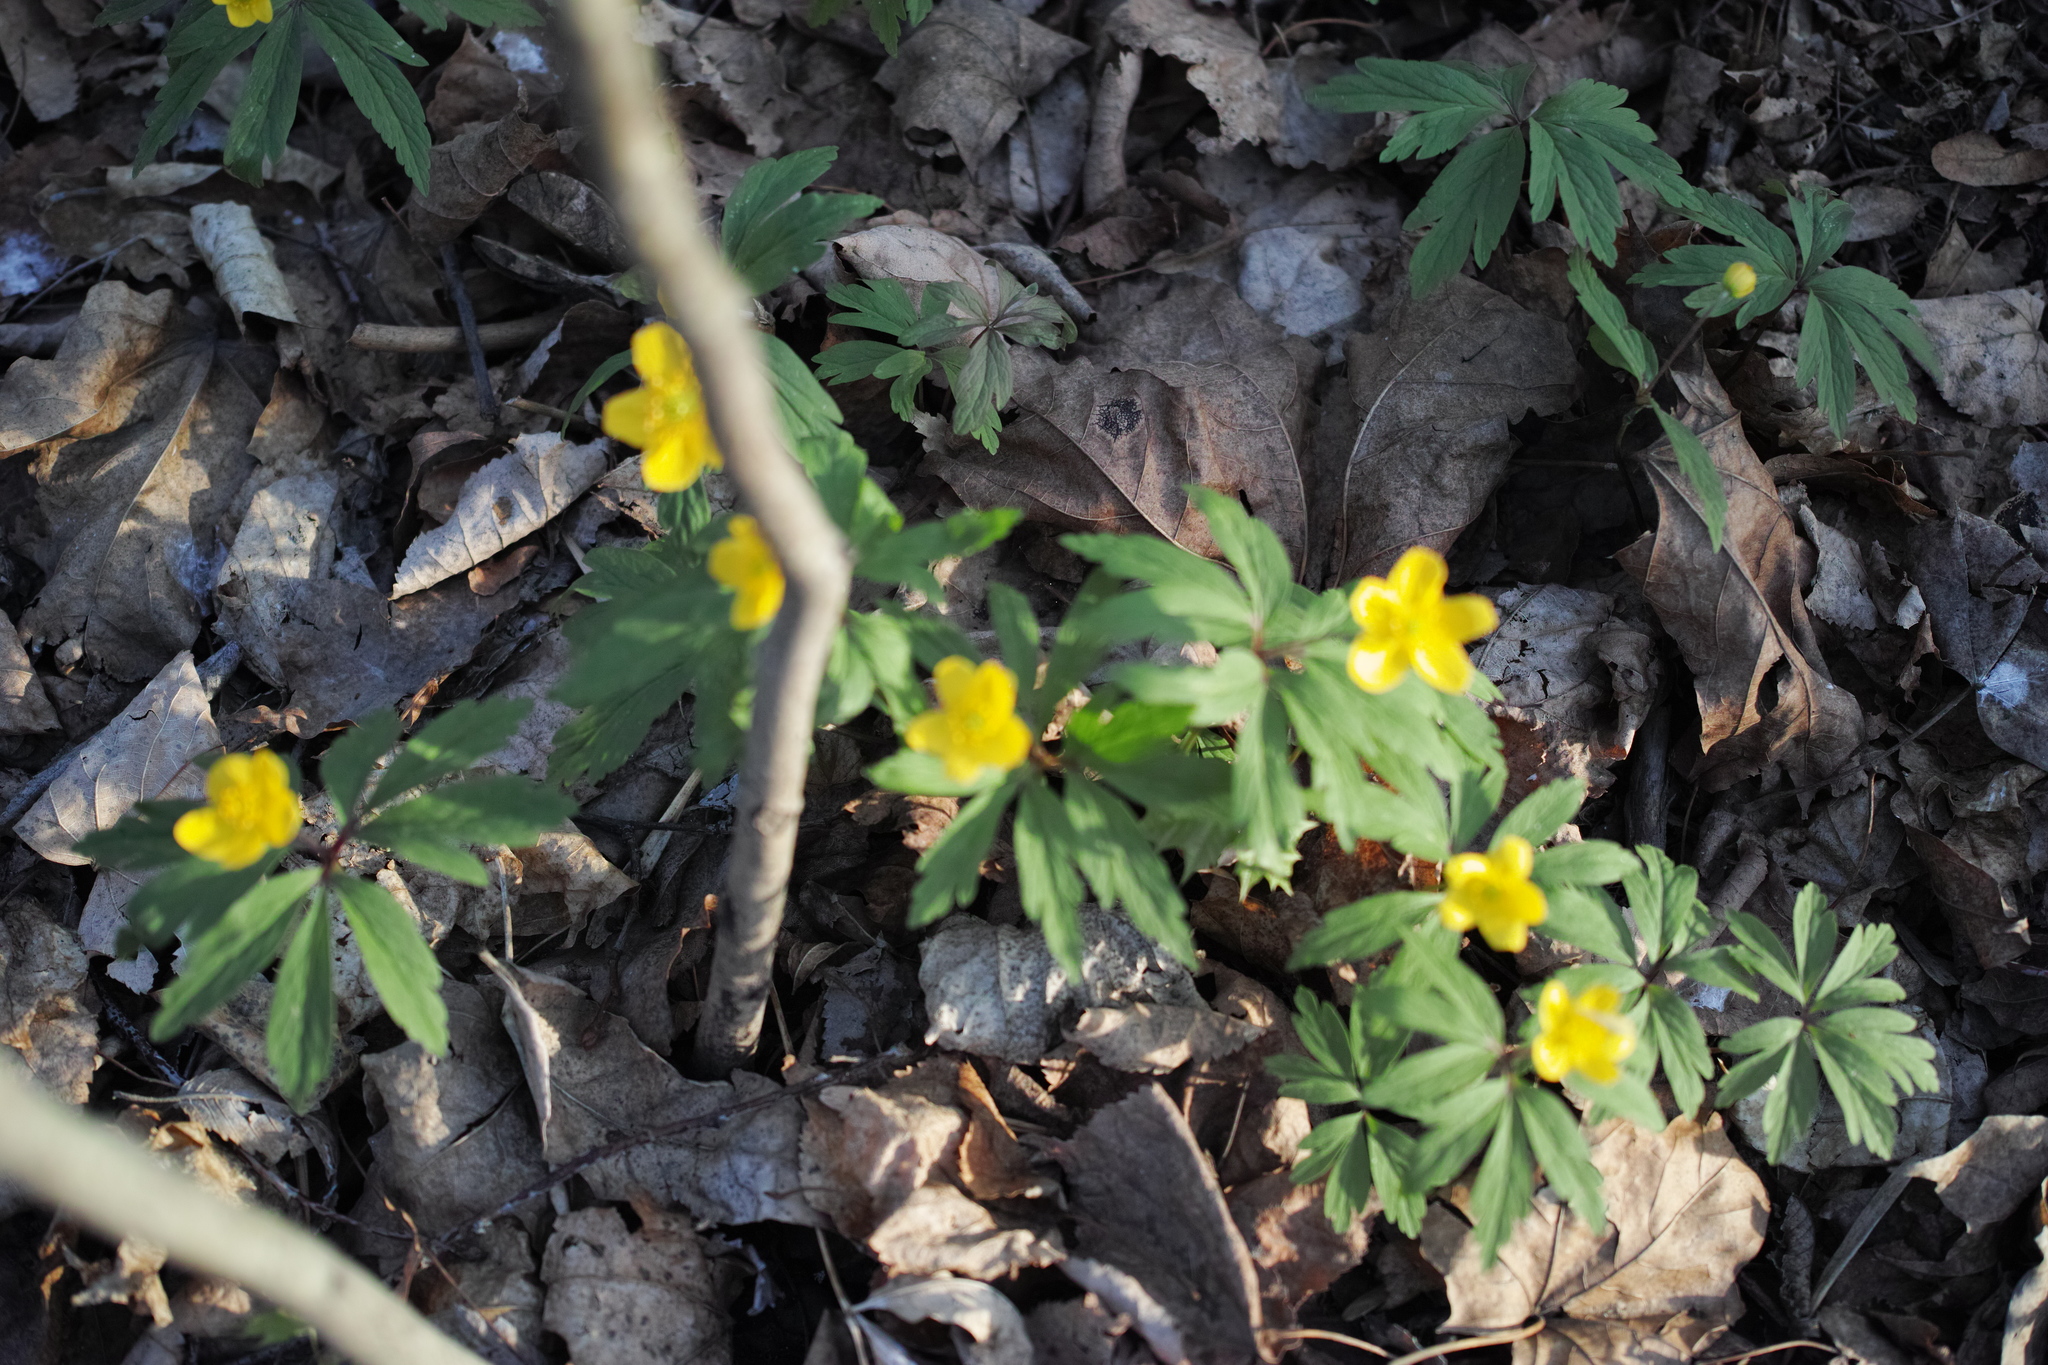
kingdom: Plantae
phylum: Tracheophyta
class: Magnoliopsida
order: Ranunculales
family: Ranunculaceae
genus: Anemone
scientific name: Anemone ranunculoides
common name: Yellow anemone
